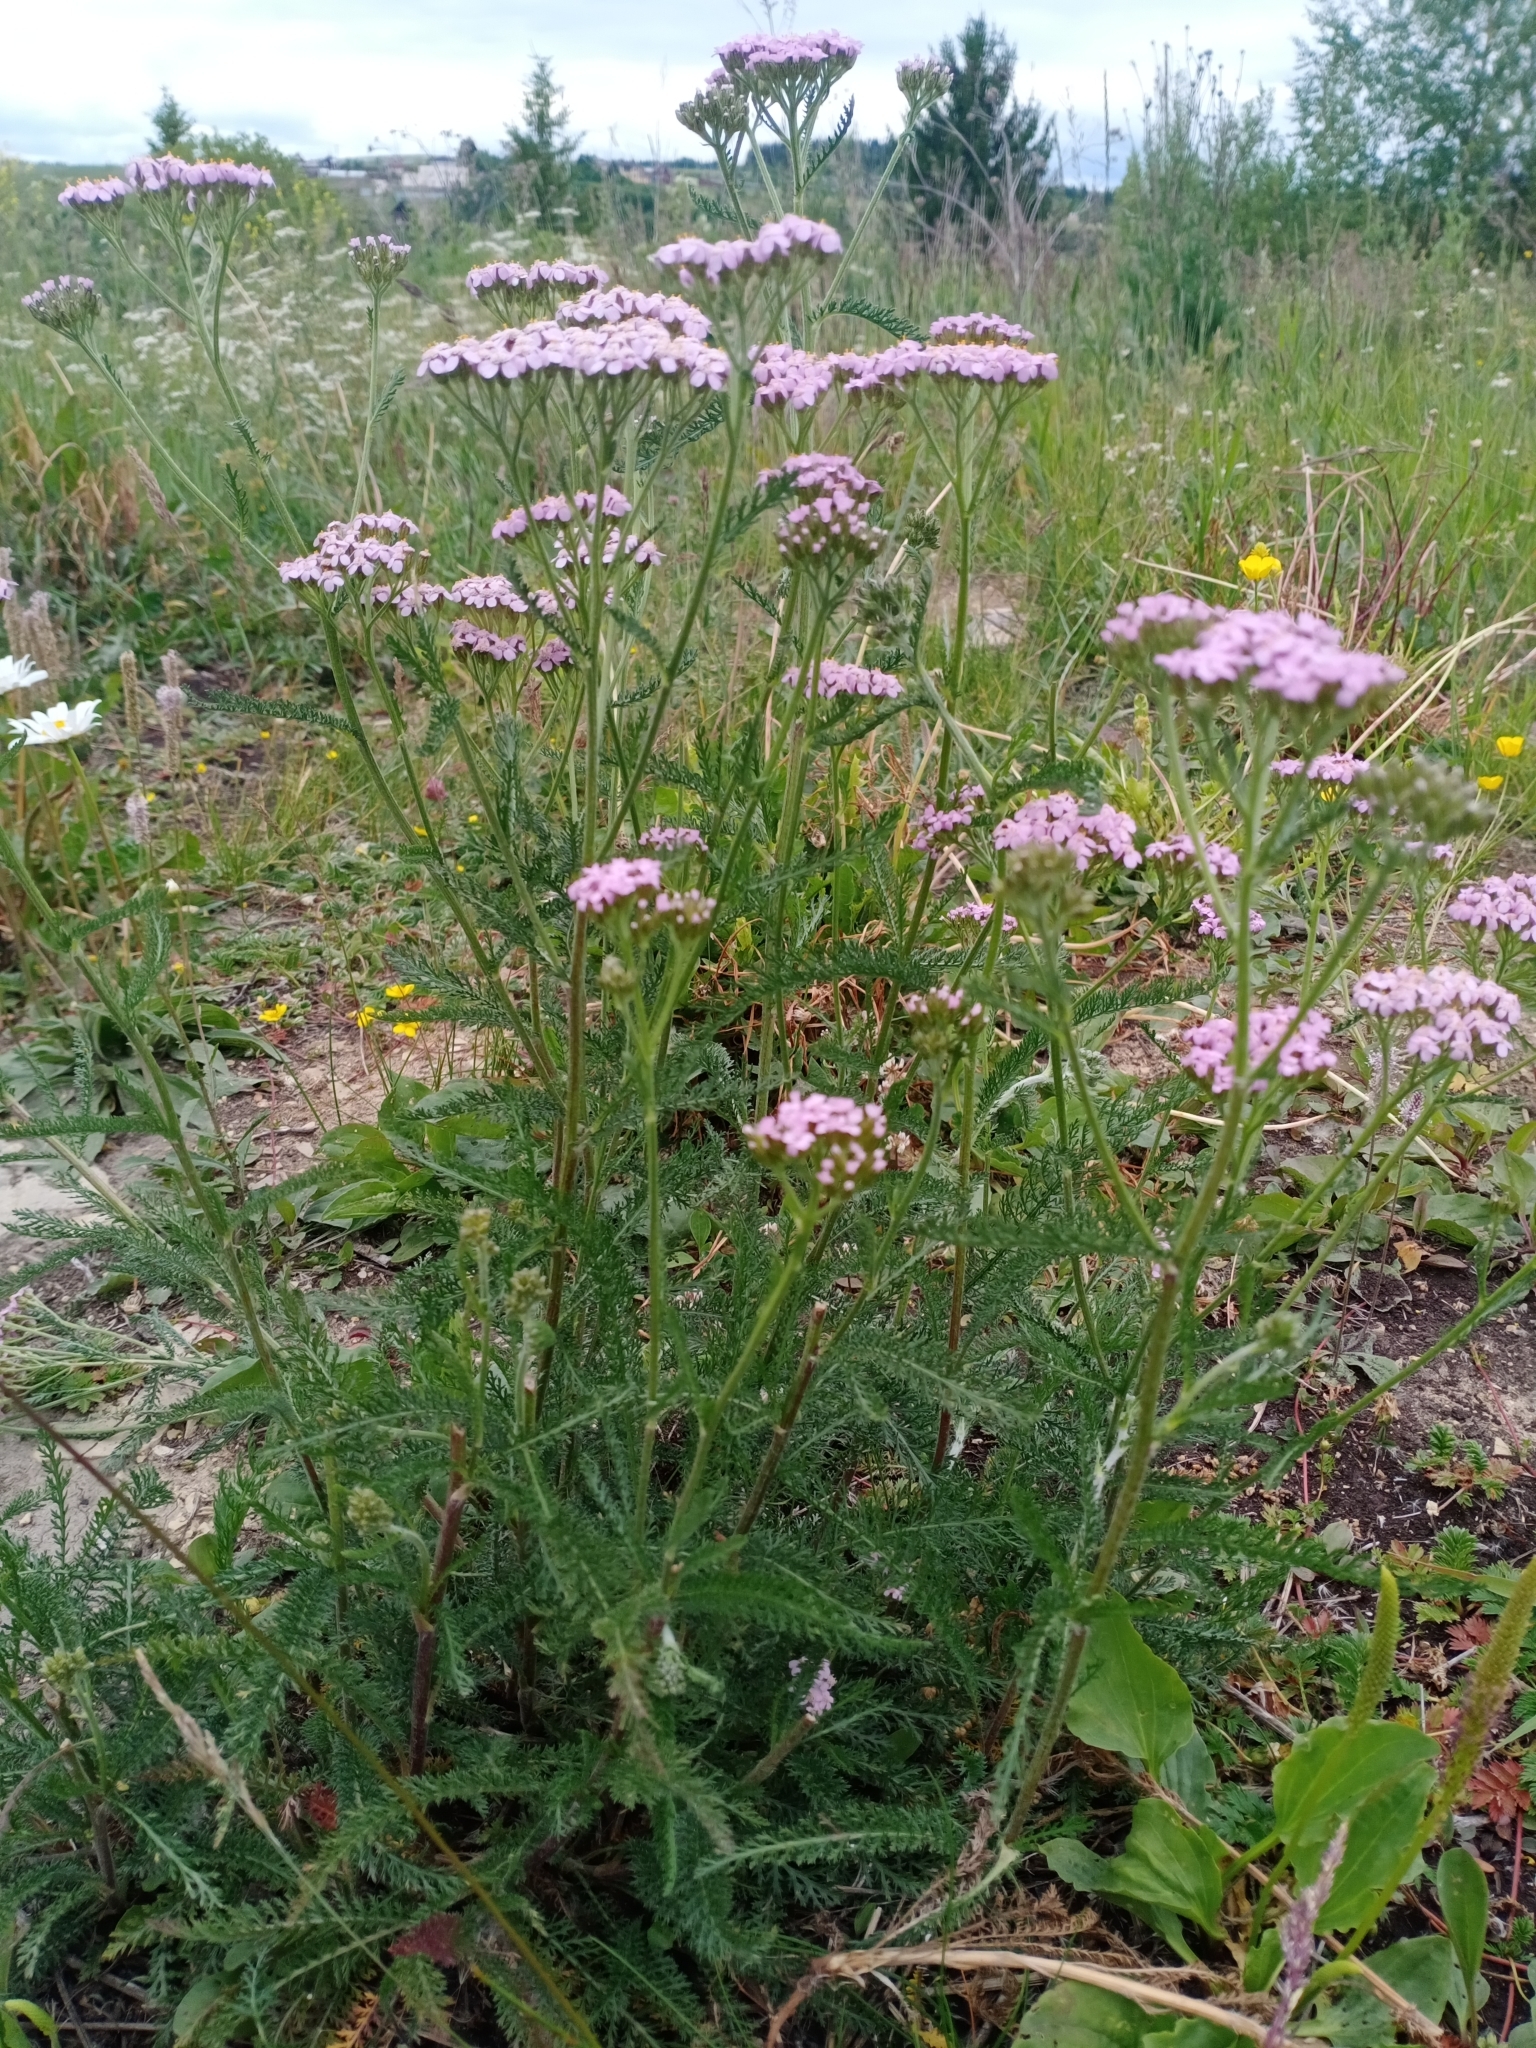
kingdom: Plantae
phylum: Tracheophyta
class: Magnoliopsida
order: Asterales
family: Asteraceae
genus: Achillea
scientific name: Achillea asiatica
